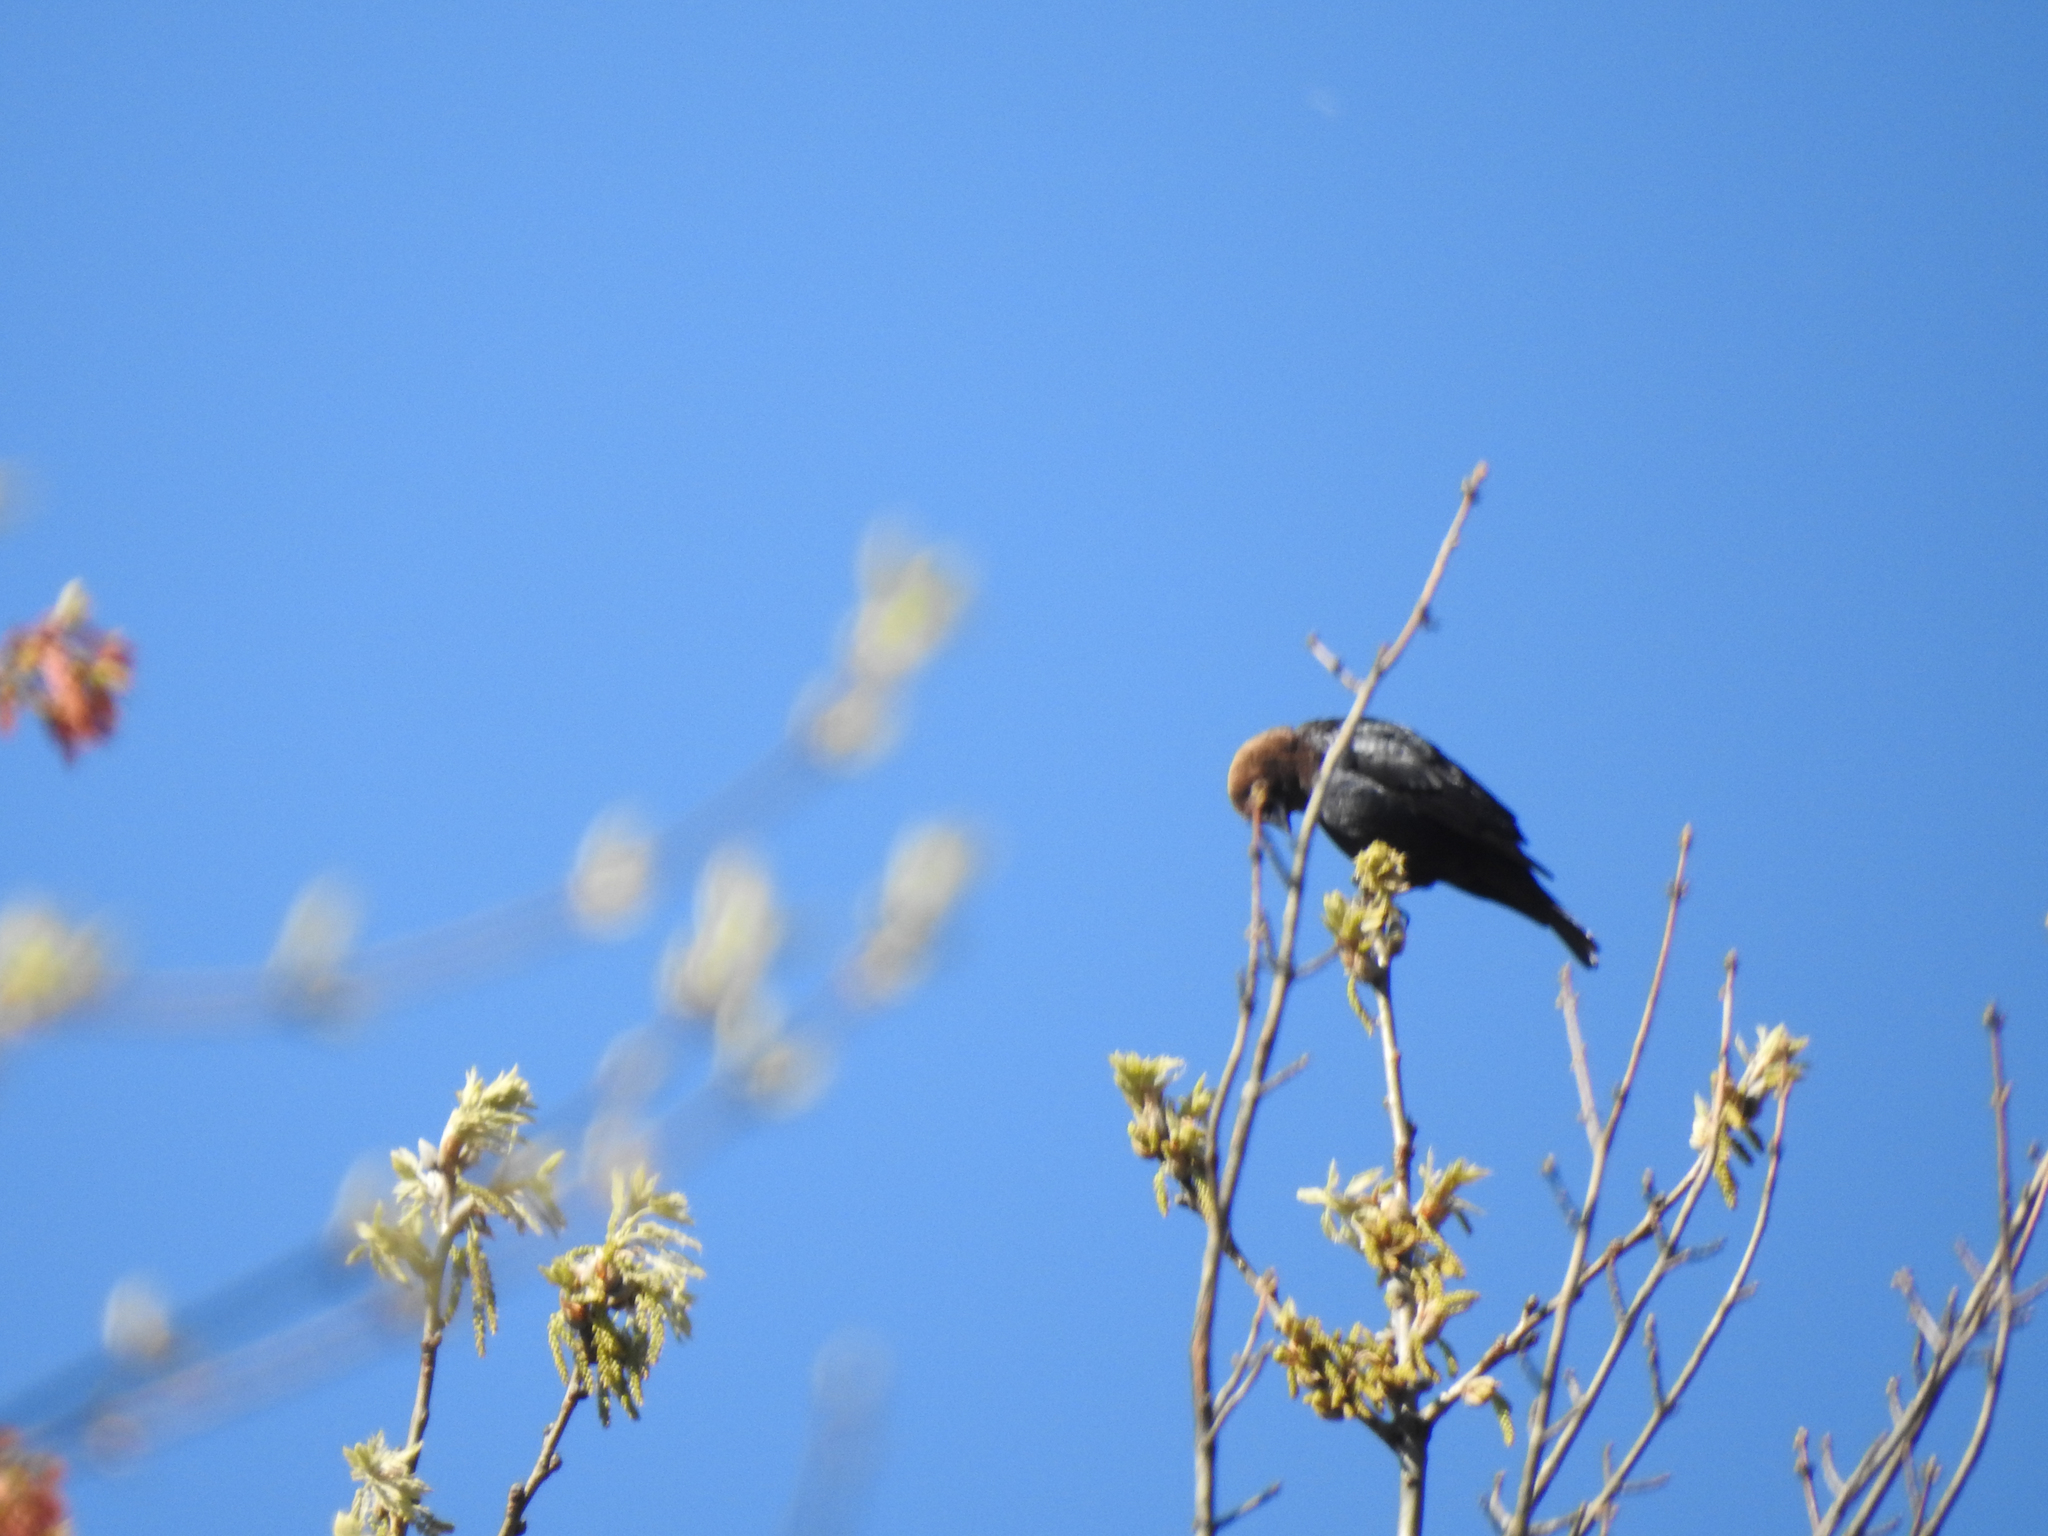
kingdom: Animalia
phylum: Chordata
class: Aves
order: Passeriformes
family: Icteridae
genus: Molothrus
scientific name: Molothrus ater
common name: Brown-headed cowbird
